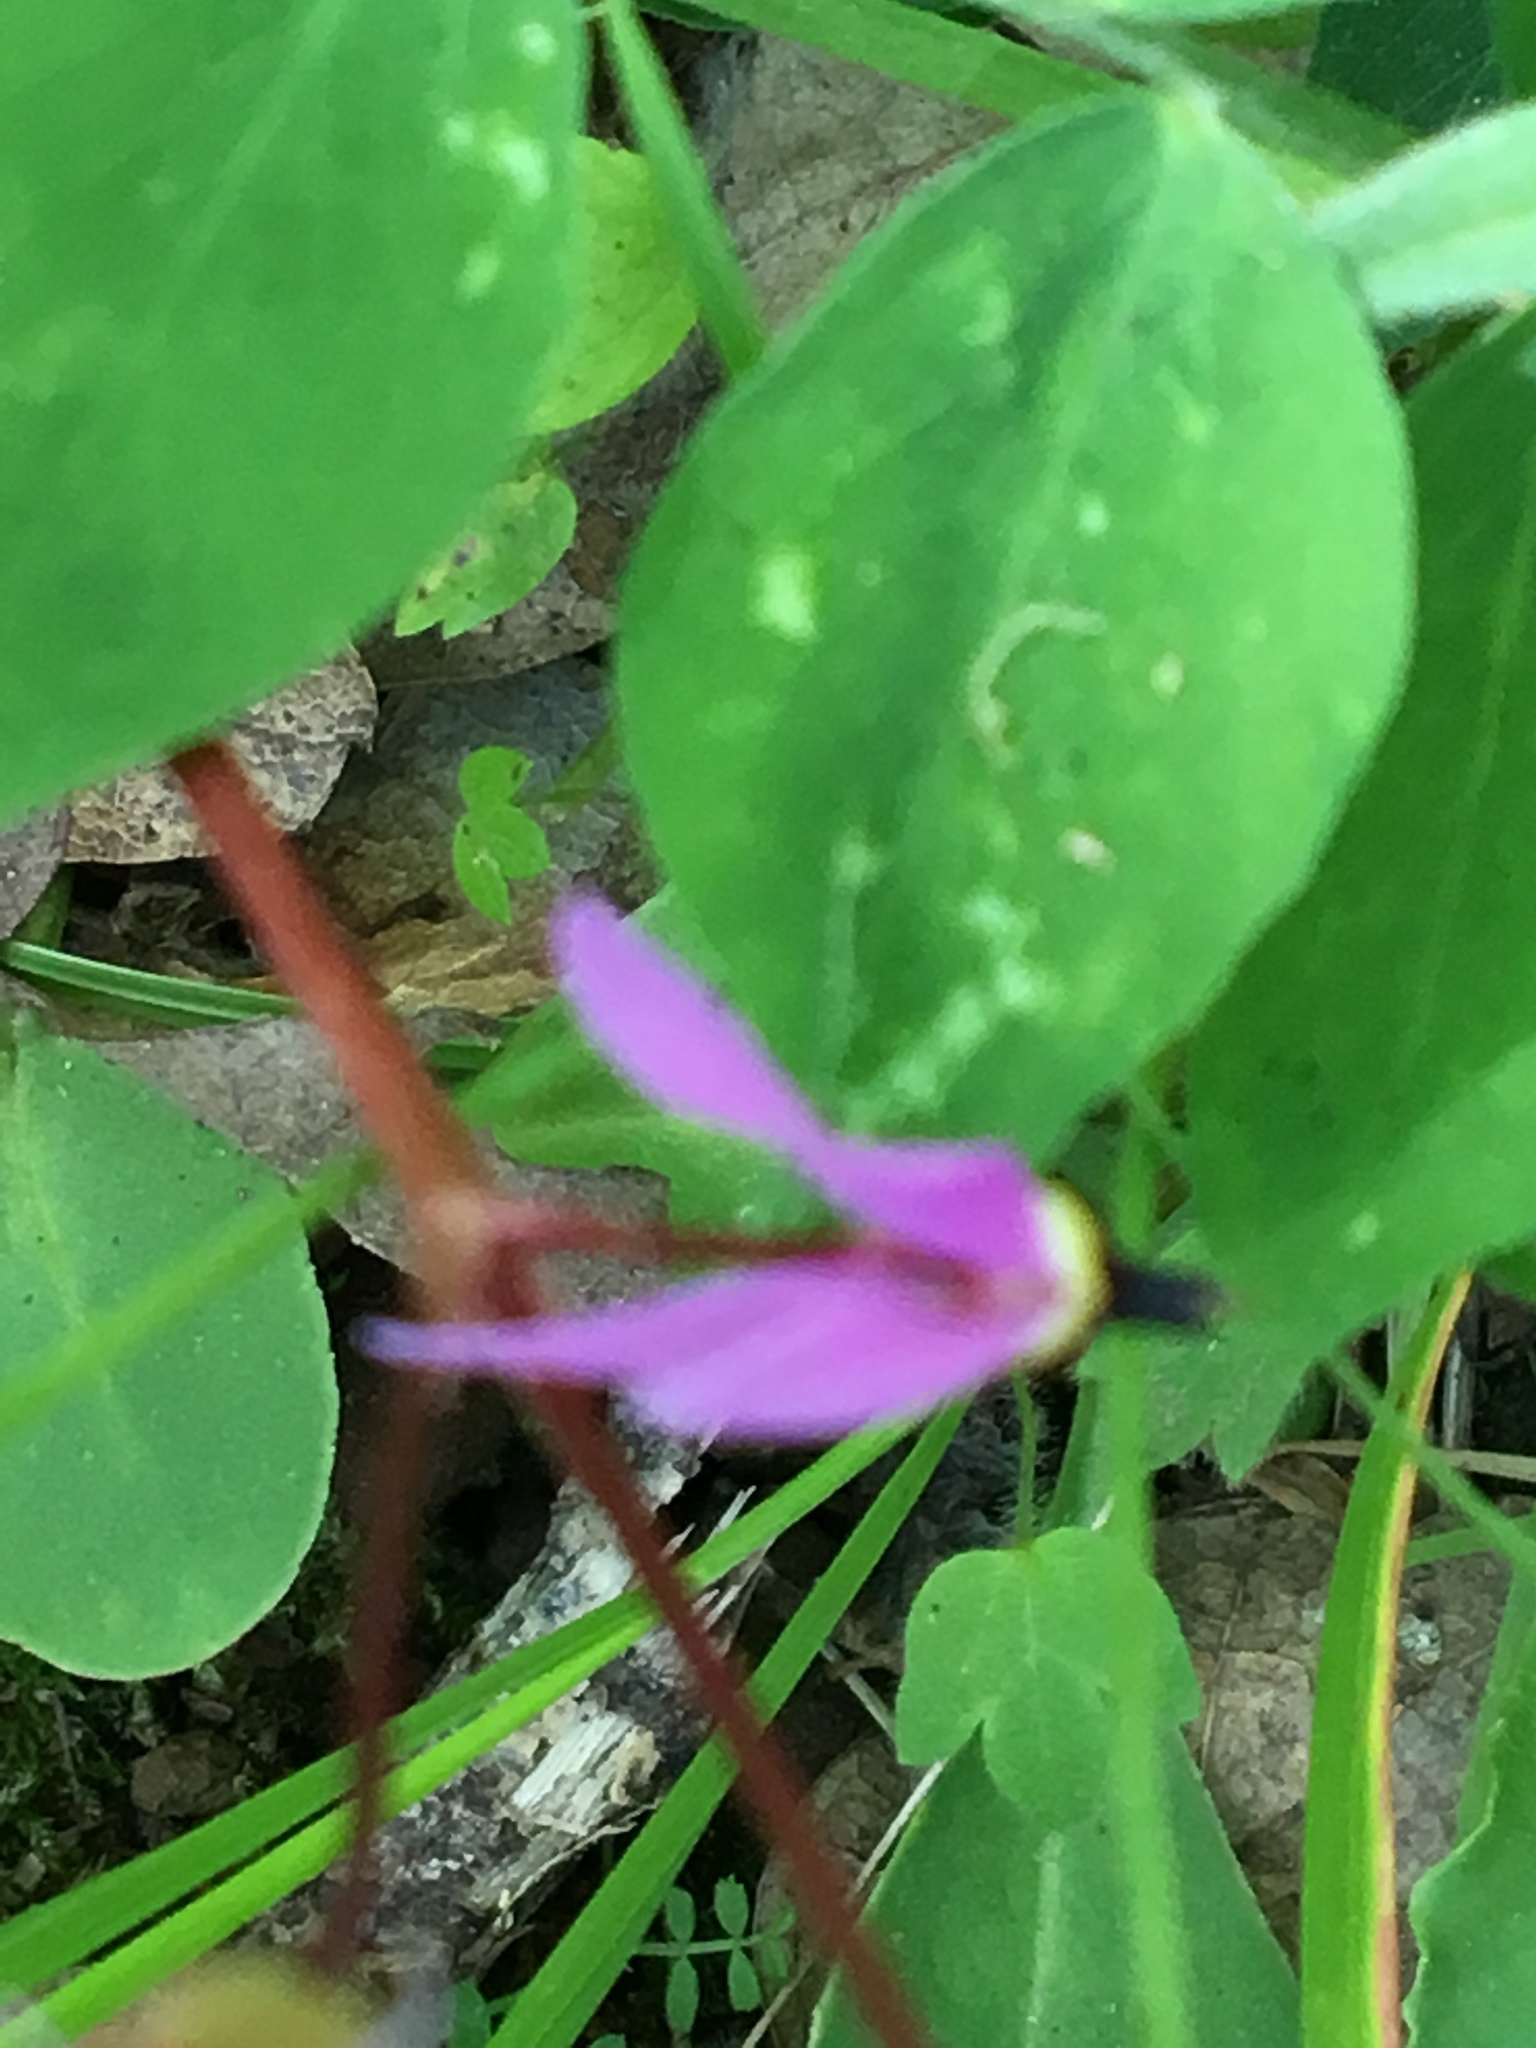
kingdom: Plantae
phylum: Tracheophyta
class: Magnoliopsida
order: Ericales
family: Primulaceae
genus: Dodecatheon
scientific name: Dodecatheon hendersonii
